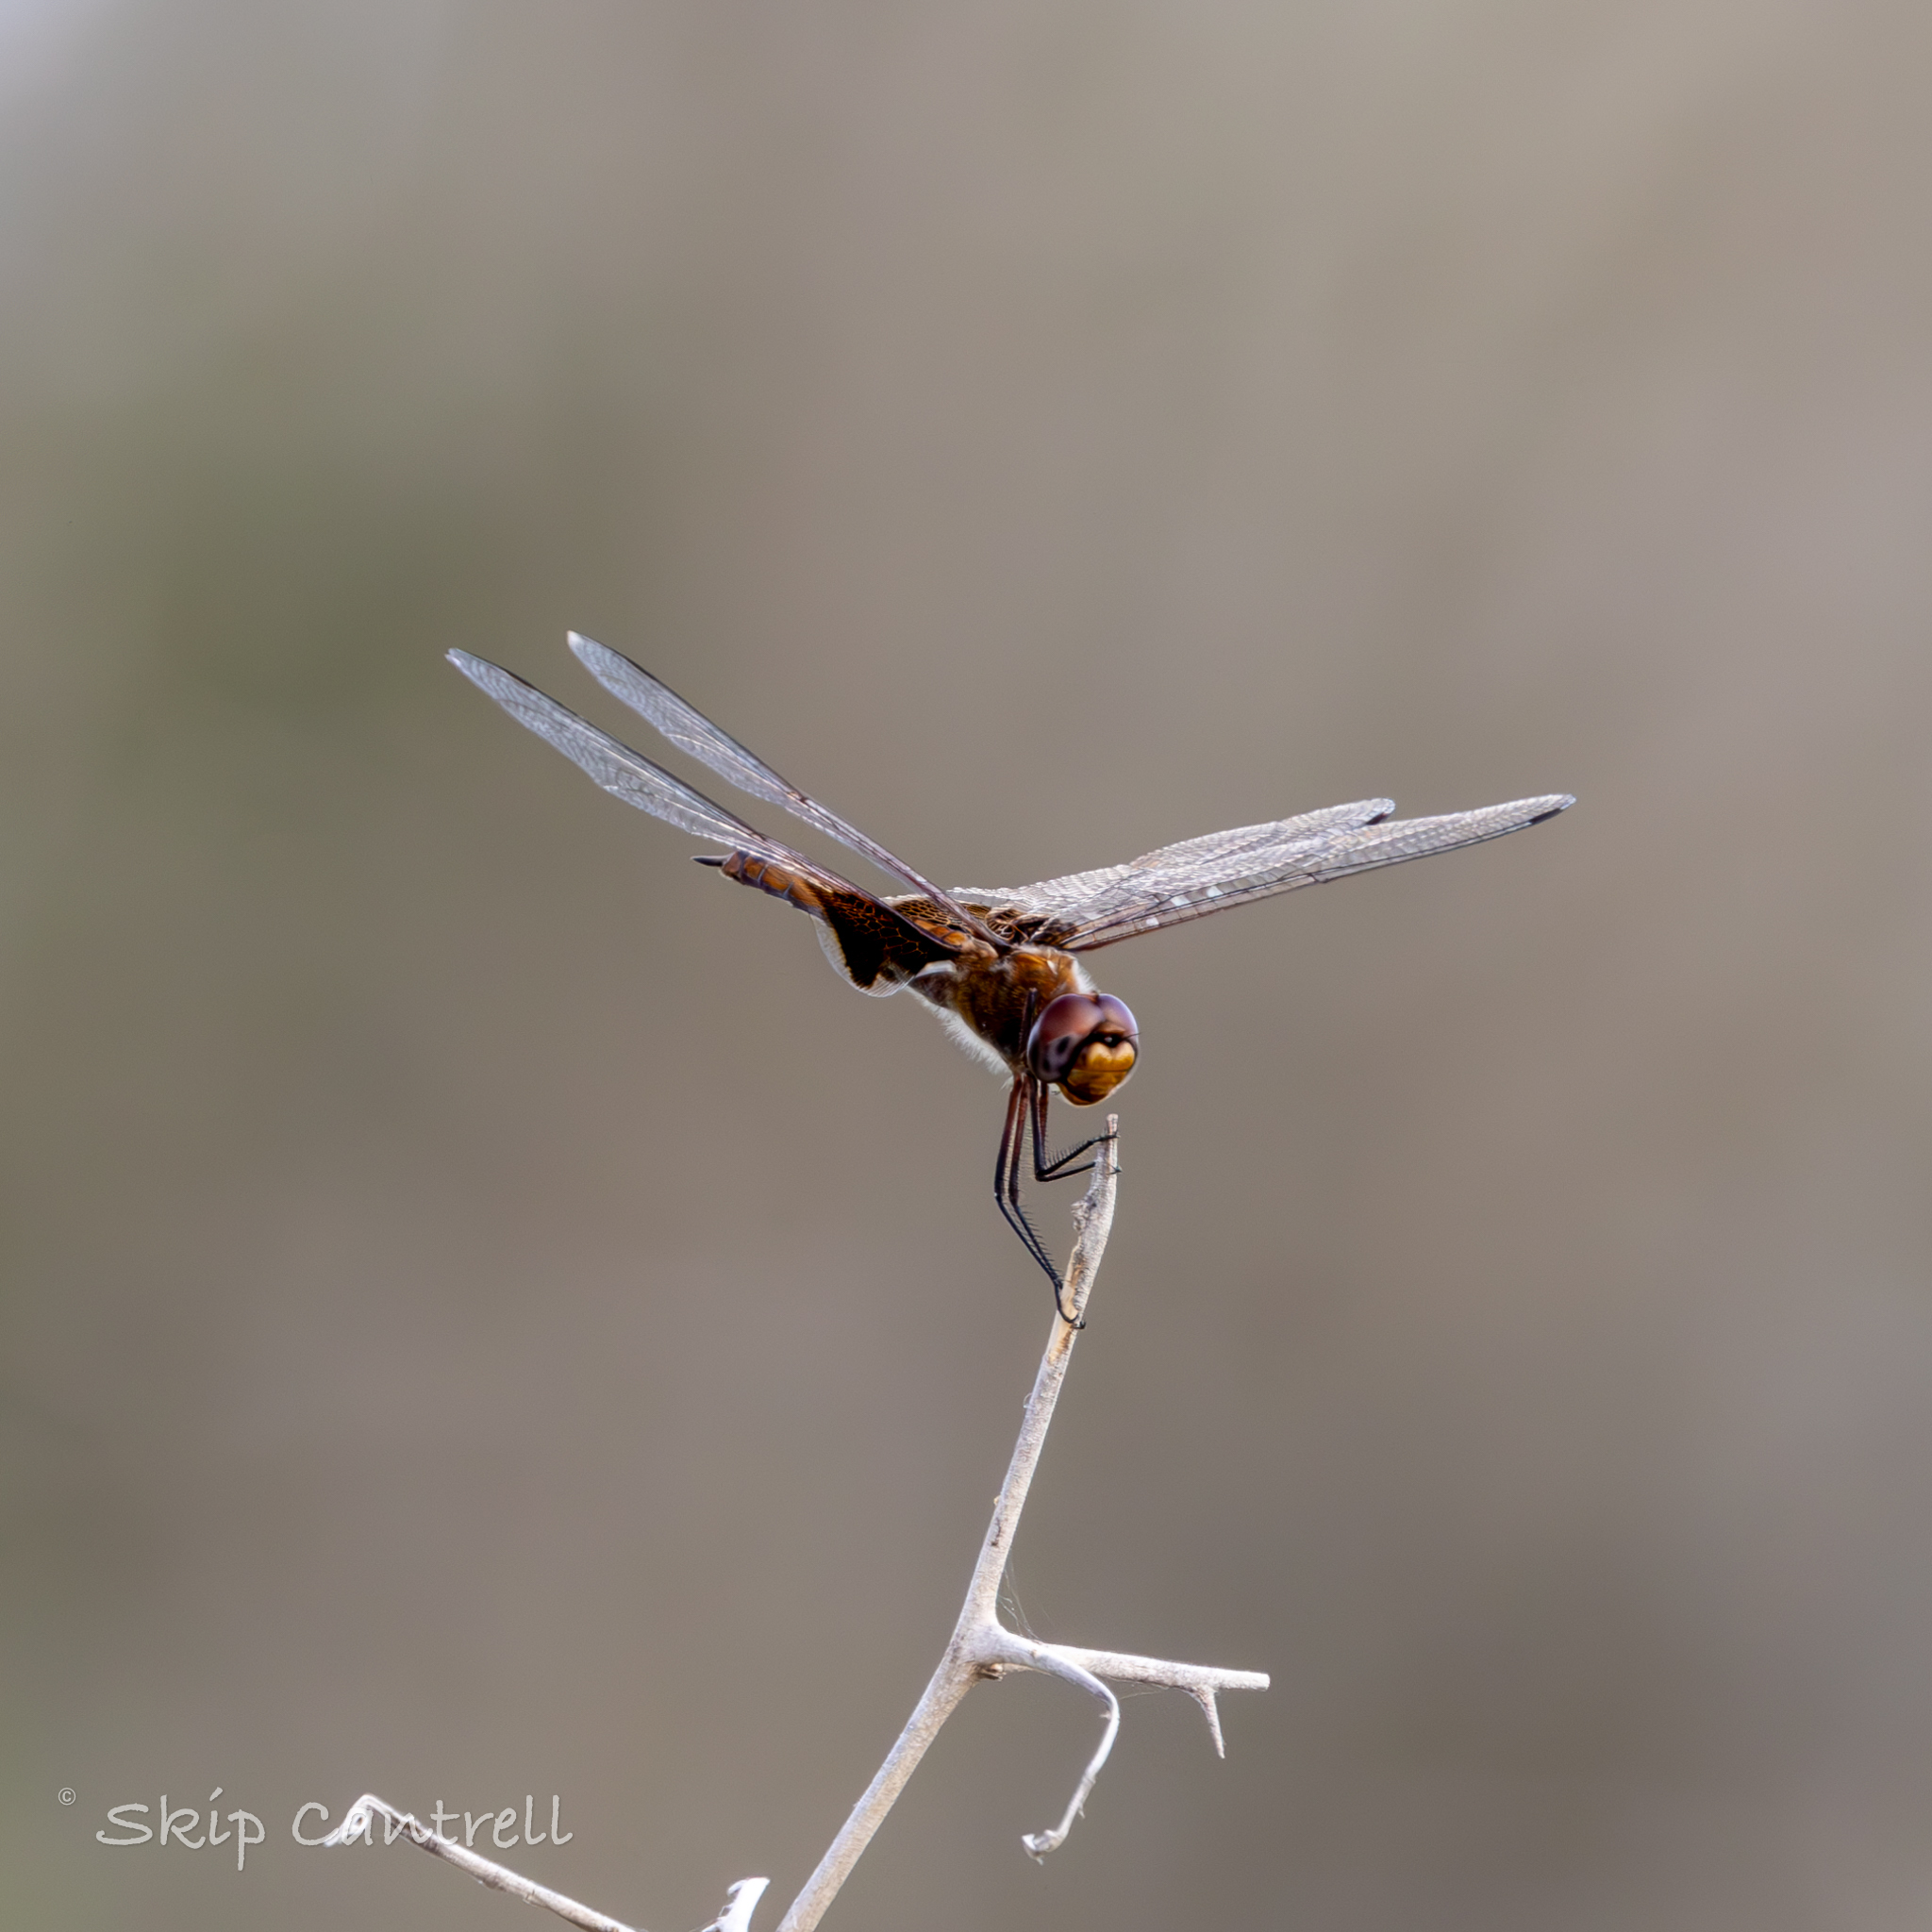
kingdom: Animalia
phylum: Arthropoda
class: Insecta
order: Odonata
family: Libellulidae
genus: Tramea
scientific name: Tramea onusta
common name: Red saddlebags
